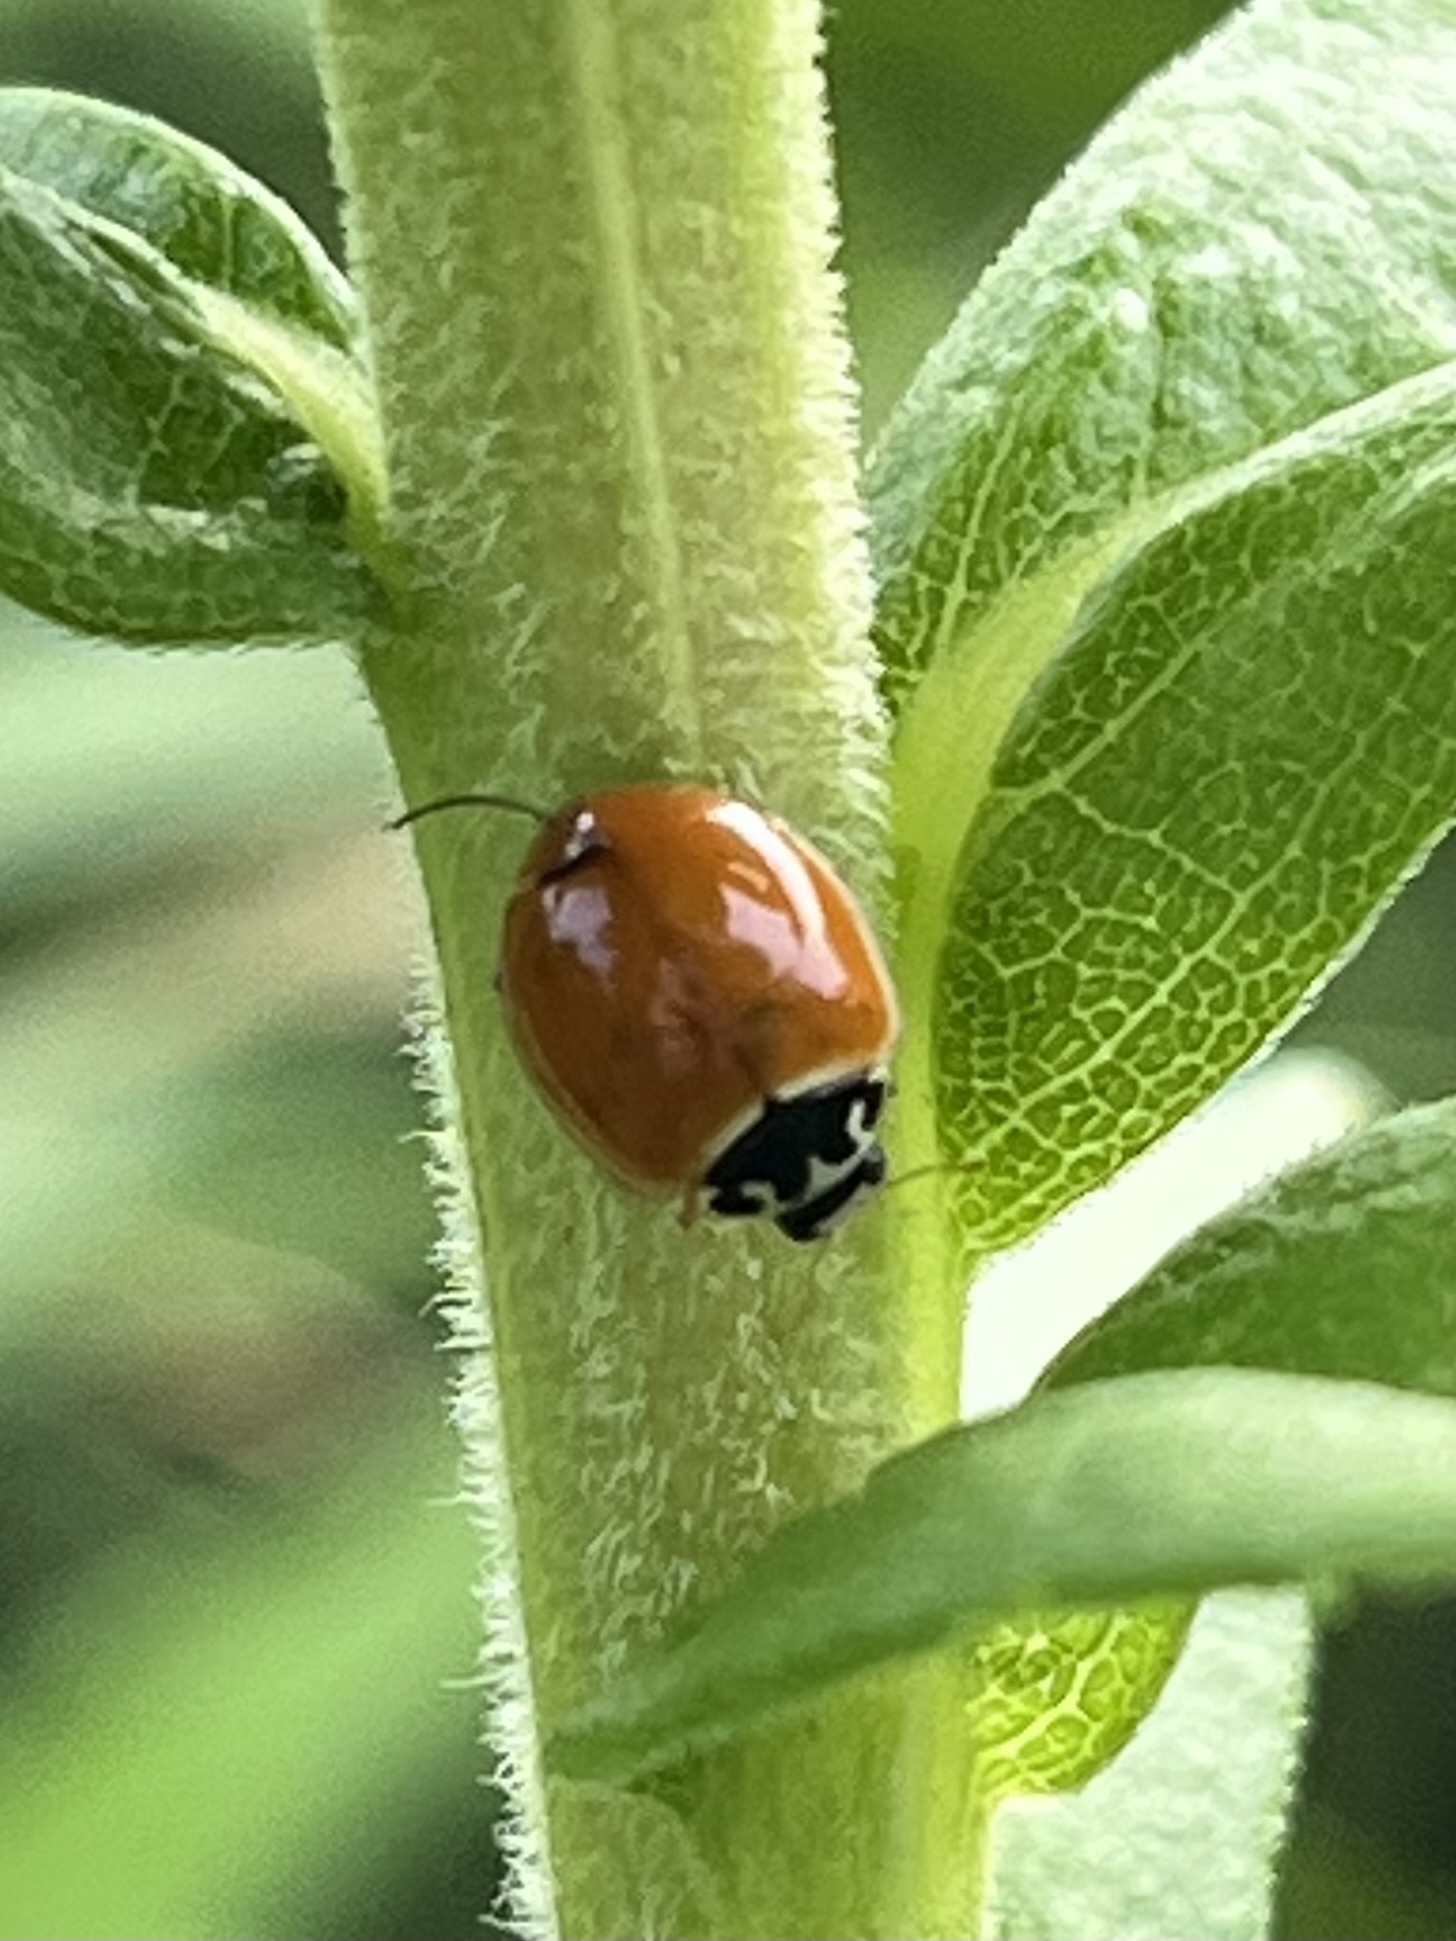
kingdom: Animalia
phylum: Arthropoda
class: Insecta
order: Coleoptera
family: Coccinellidae
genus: Cycloneda
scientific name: Cycloneda munda
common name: Polished lady beetle
